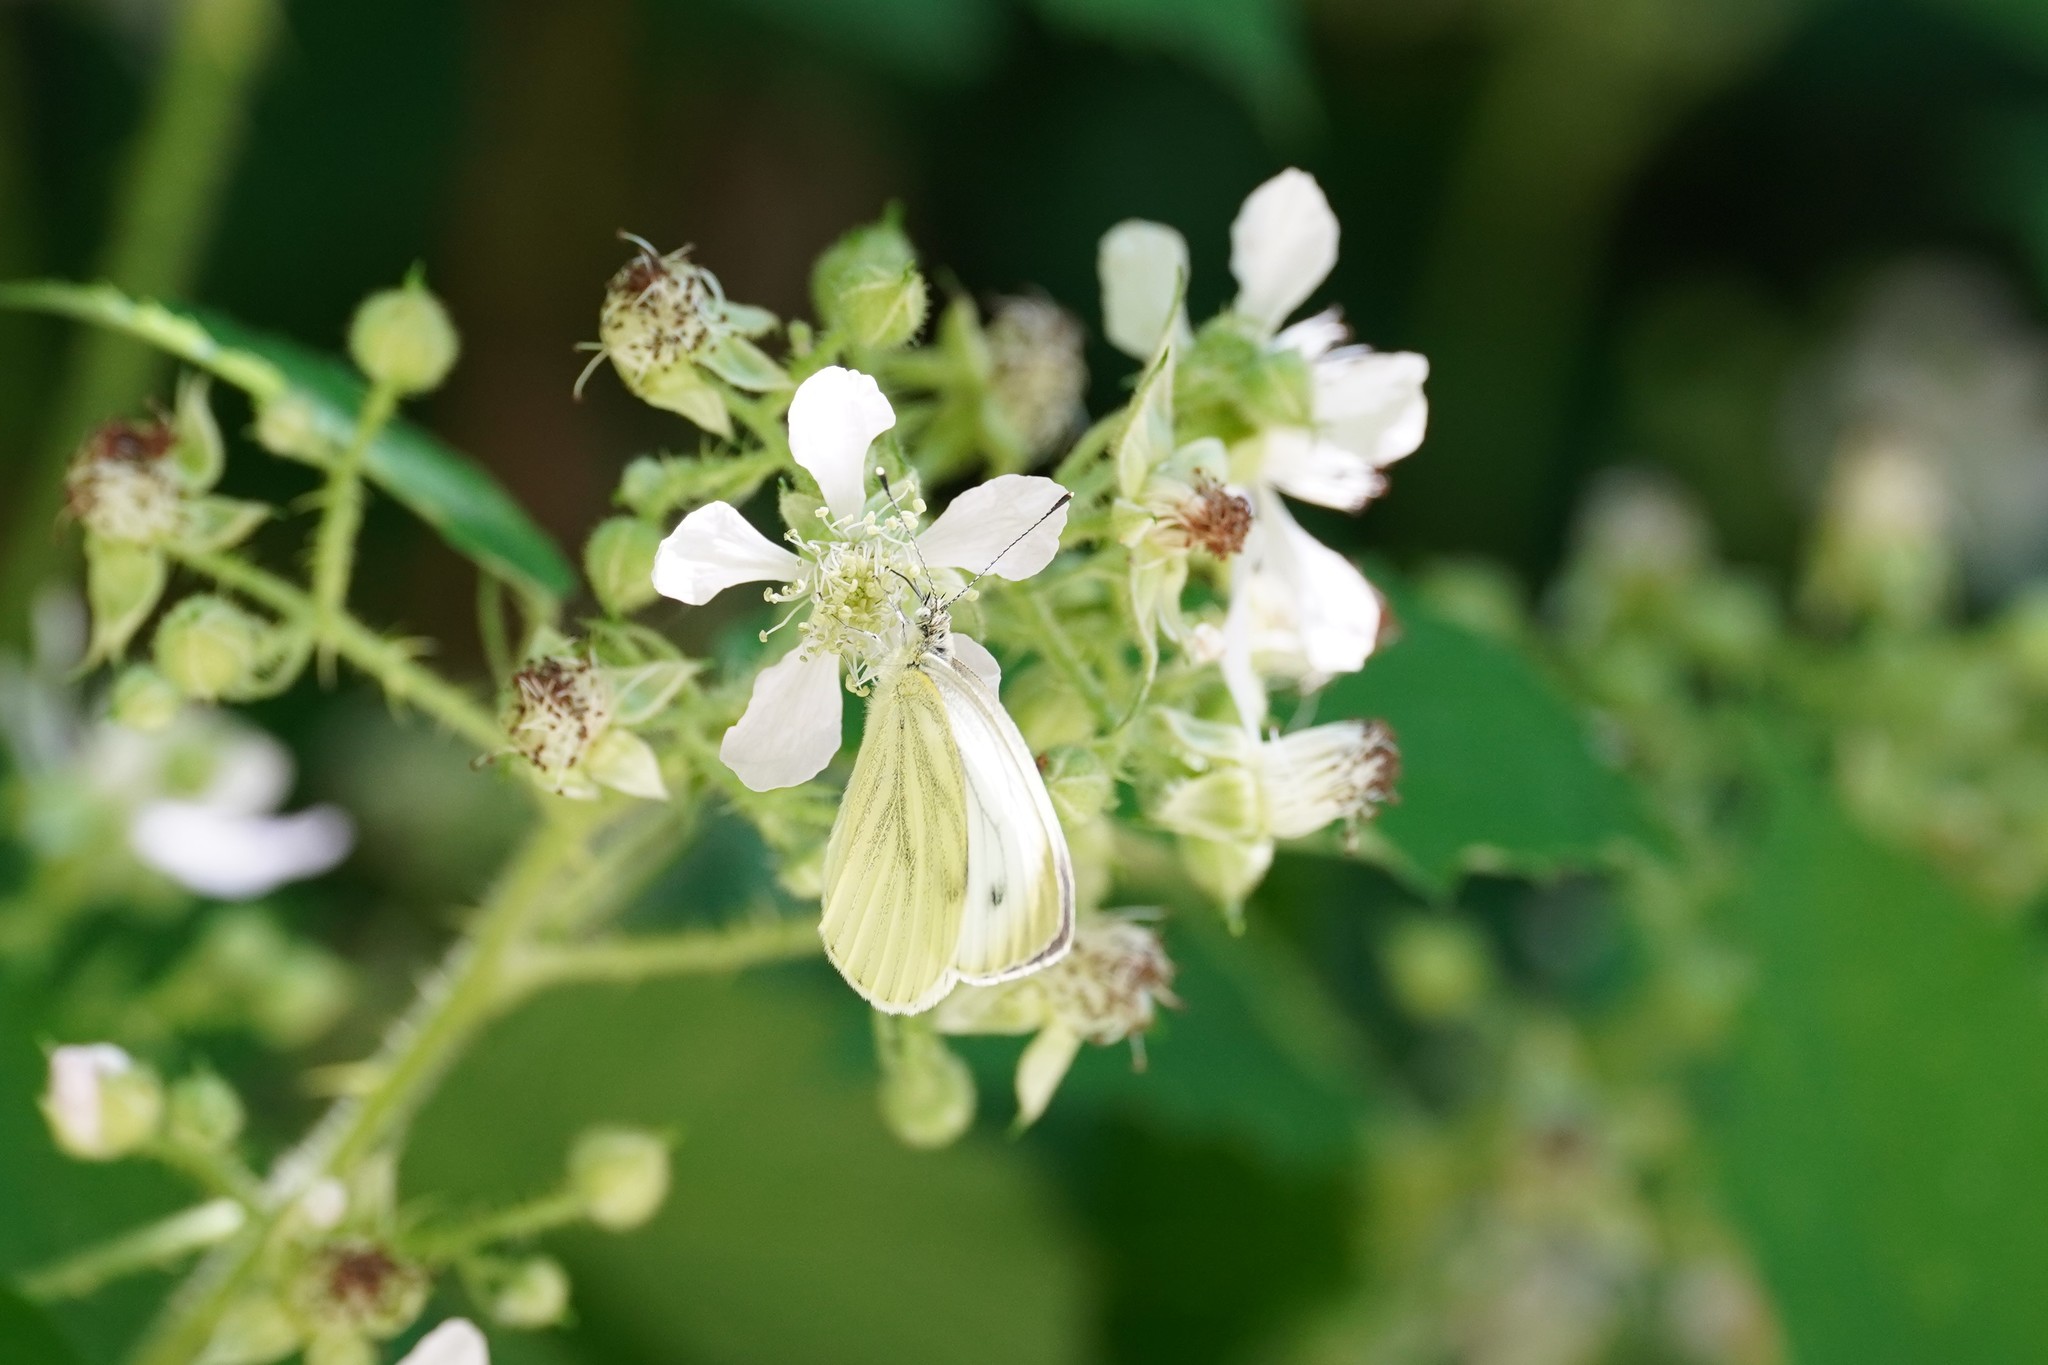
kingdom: Animalia
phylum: Arthropoda
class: Insecta
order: Lepidoptera
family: Pieridae
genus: Pieris
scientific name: Pieris napi
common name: Green-veined white
